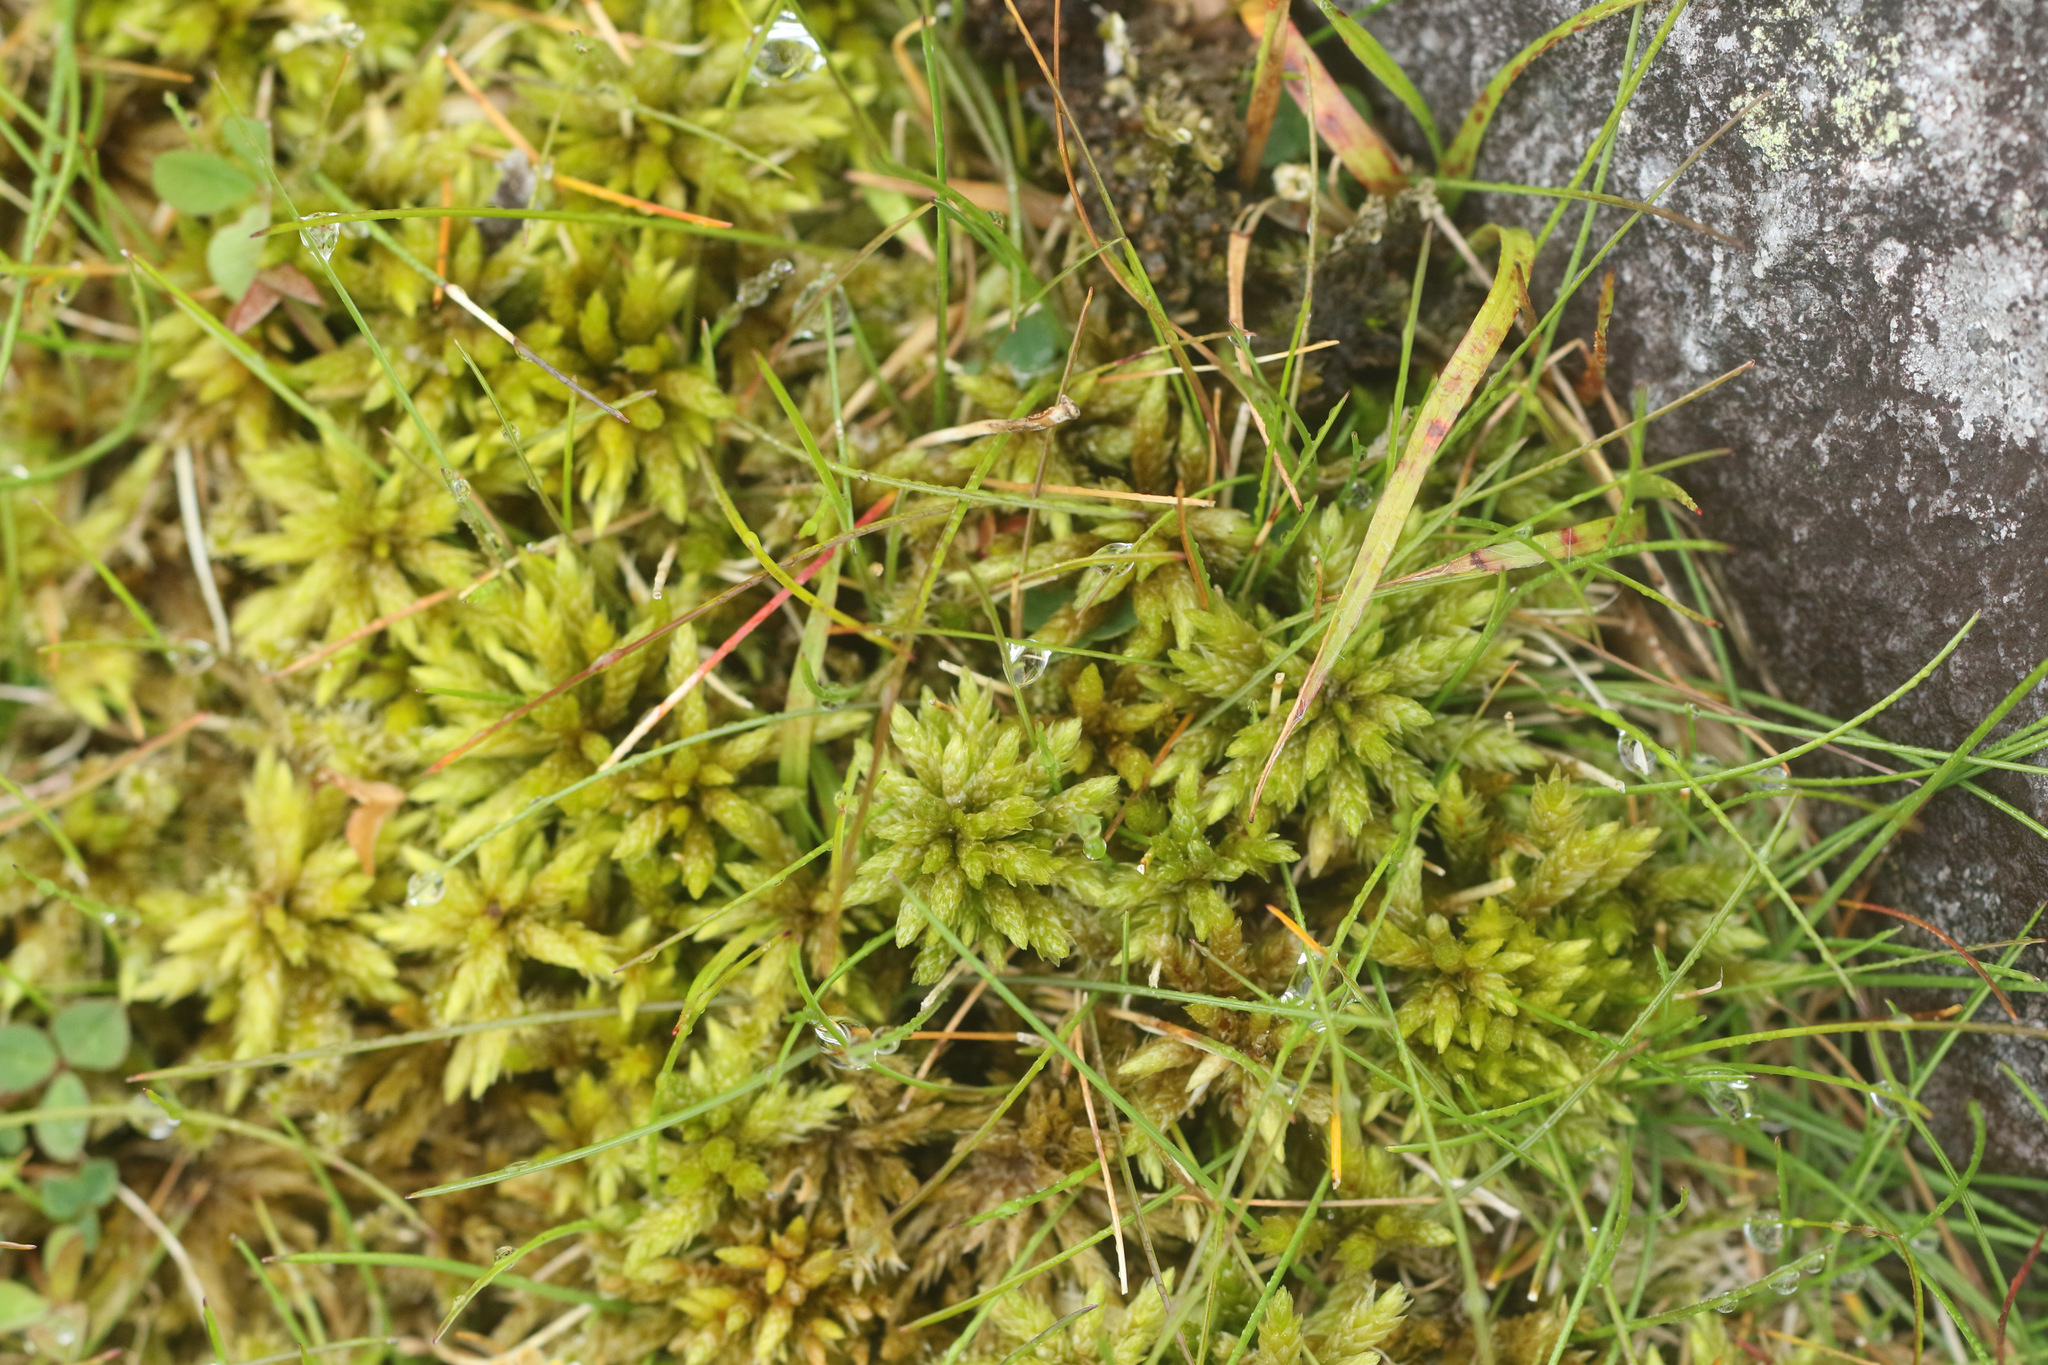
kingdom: Plantae
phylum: Bryophyta
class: Bryopsida
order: Hypnales
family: Climaciaceae
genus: Climacium
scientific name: Climacium dendroides
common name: Northern tree moss
